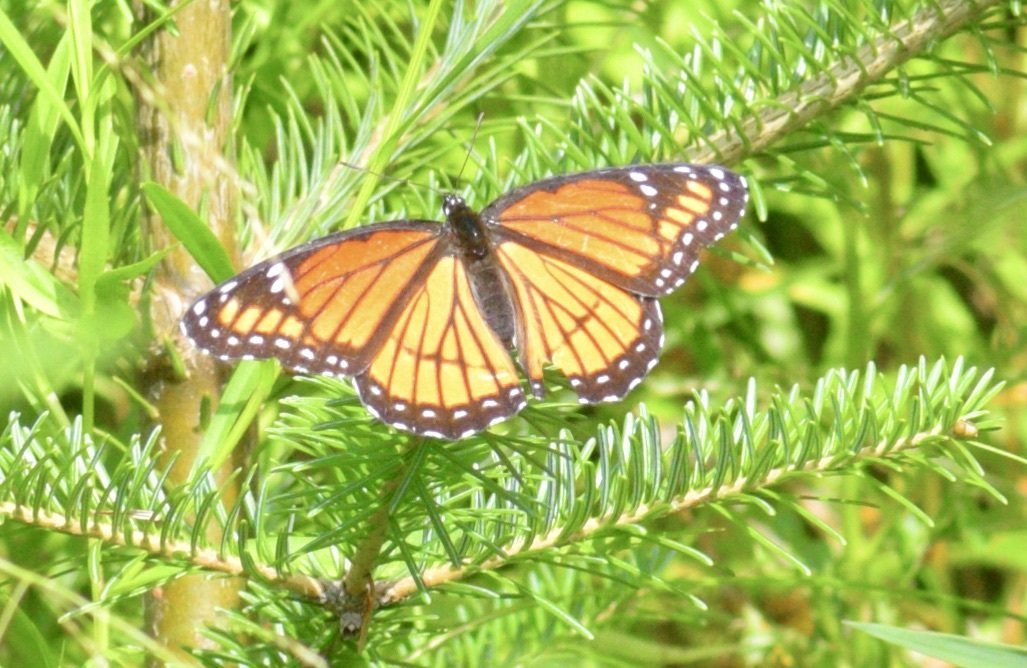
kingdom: Animalia
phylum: Arthropoda
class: Insecta
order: Lepidoptera
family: Nymphalidae
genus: Limenitis
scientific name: Limenitis archippus
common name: Viceroy
